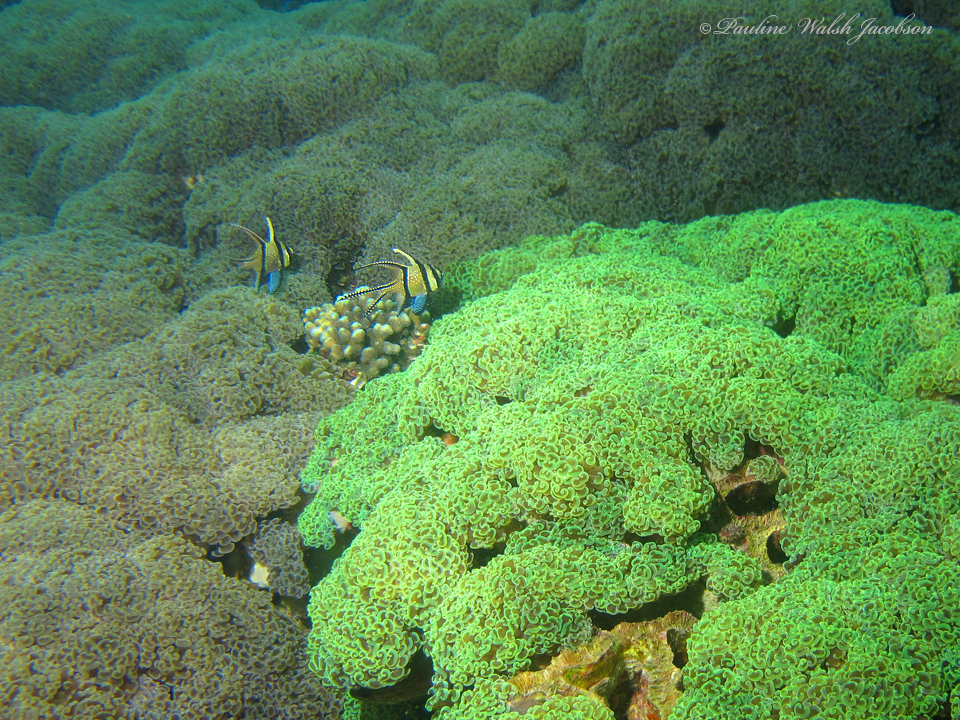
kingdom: Animalia
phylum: Chordata
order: Perciformes
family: Apogonidae
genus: Pterapogon
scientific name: Pterapogon kauderni
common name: Banggai cardinalfish
